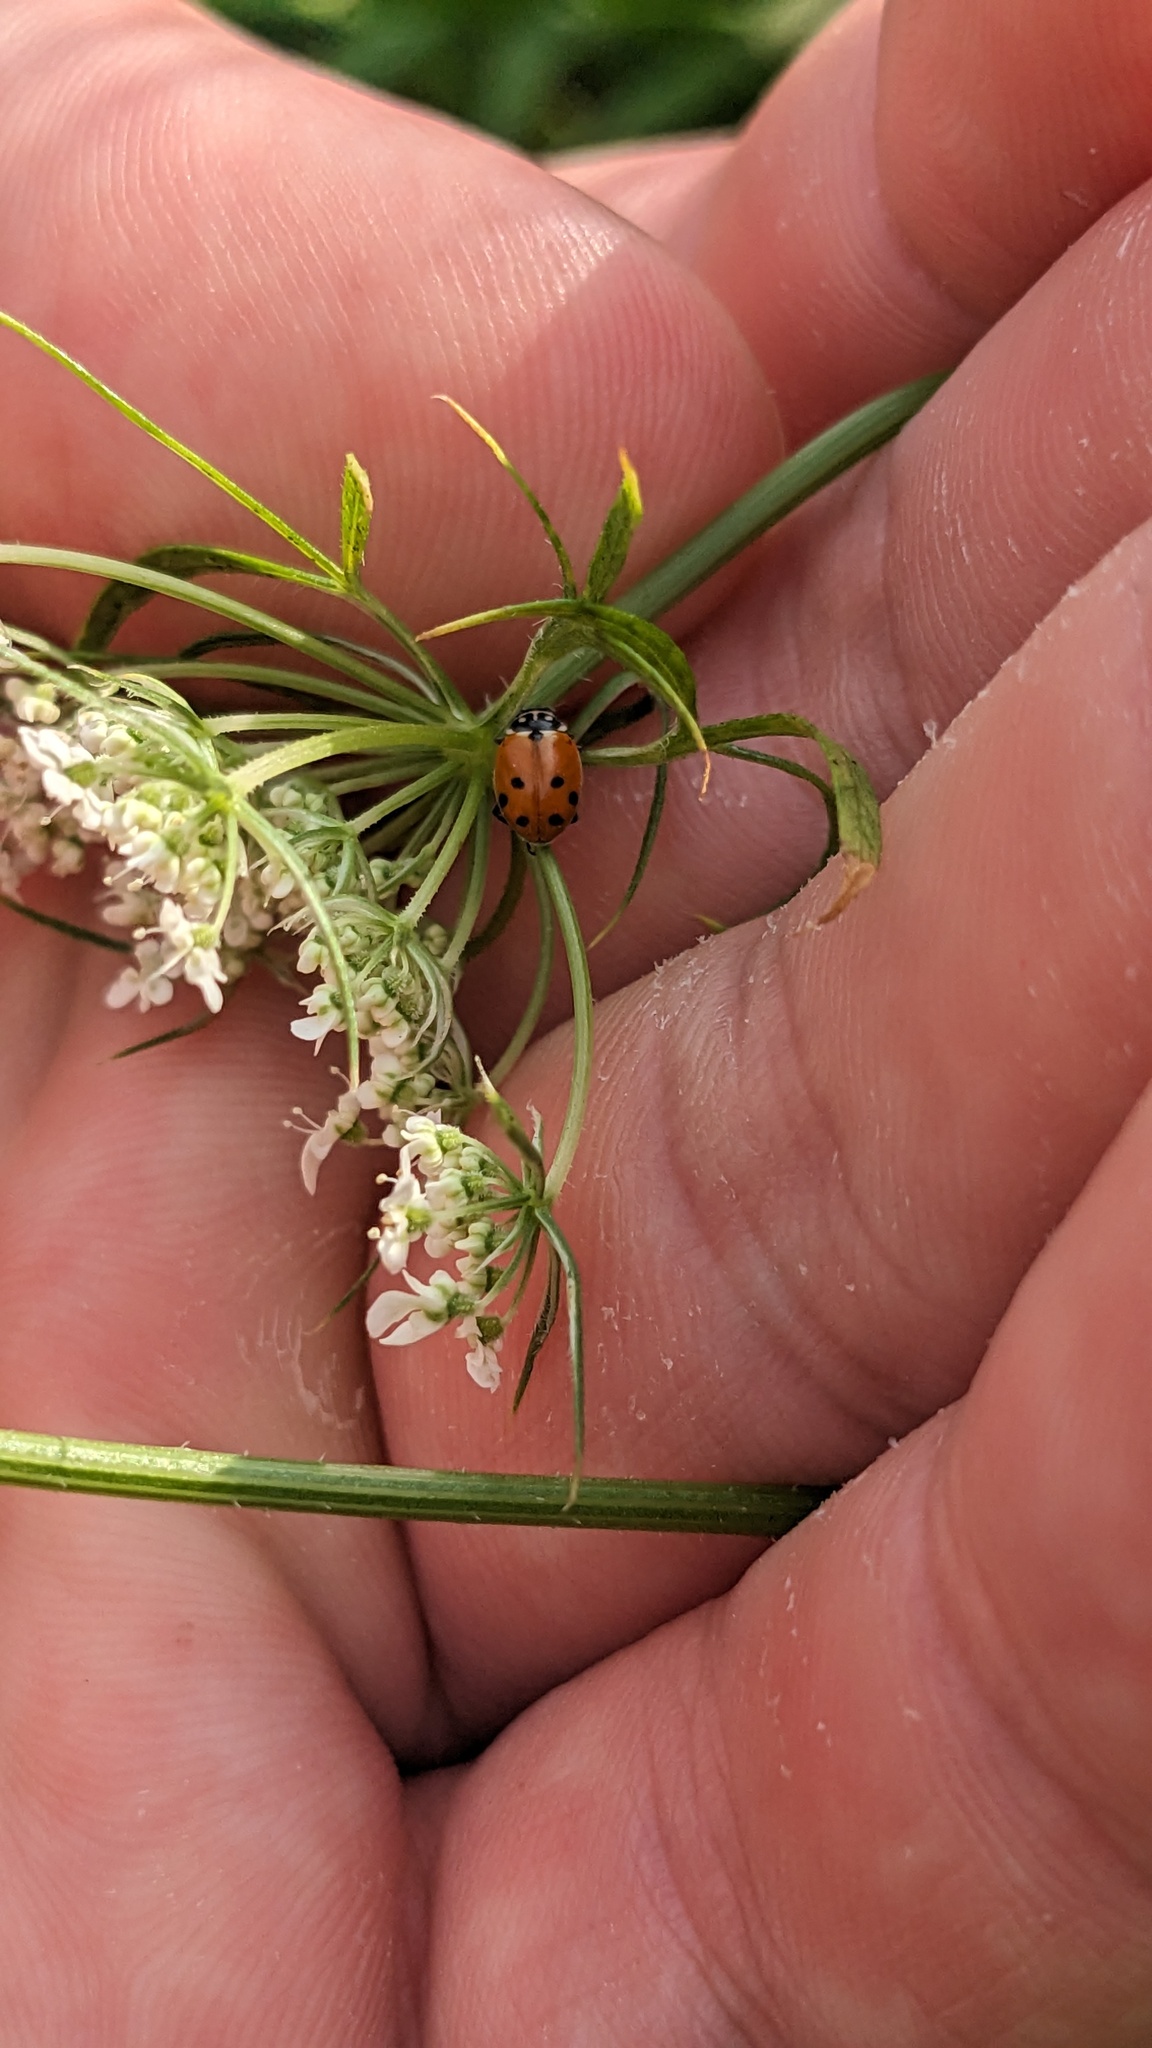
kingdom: Animalia
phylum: Arthropoda
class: Insecta
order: Coleoptera
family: Coccinellidae
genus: Hippodamia
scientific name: Hippodamia variegata
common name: Ladybird beetle
